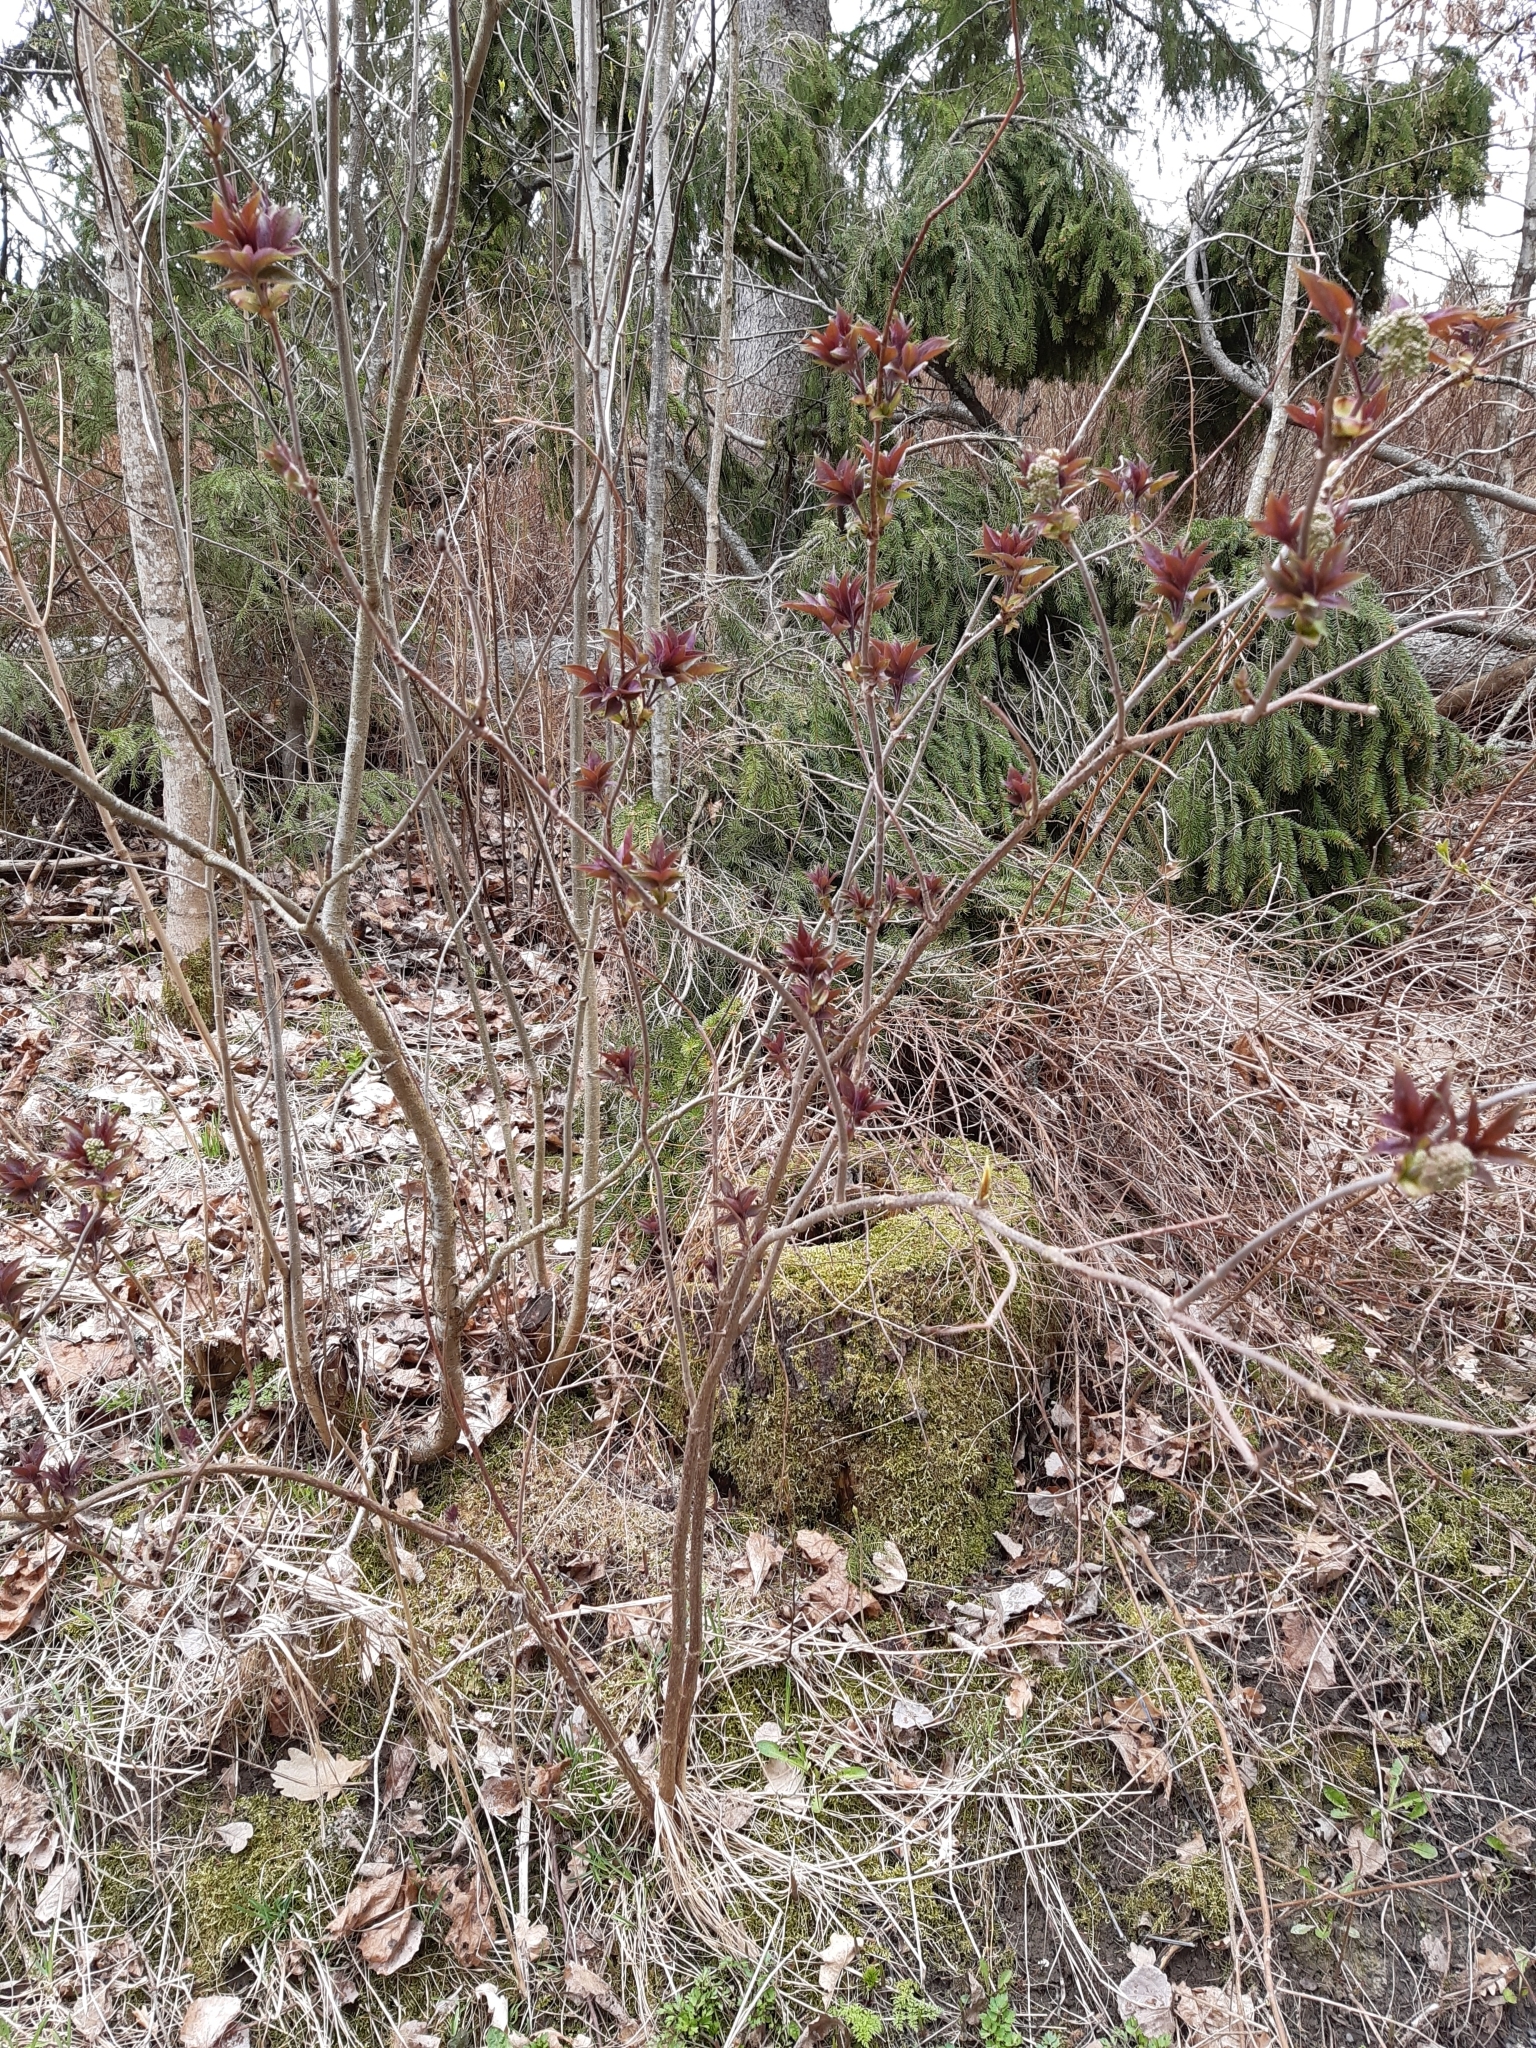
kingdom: Plantae
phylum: Tracheophyta
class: Magnoliopsida
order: Dipsacales
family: Viburnaceae
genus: Sambucus
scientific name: Sambucus racemosa
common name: Red-berried elder
